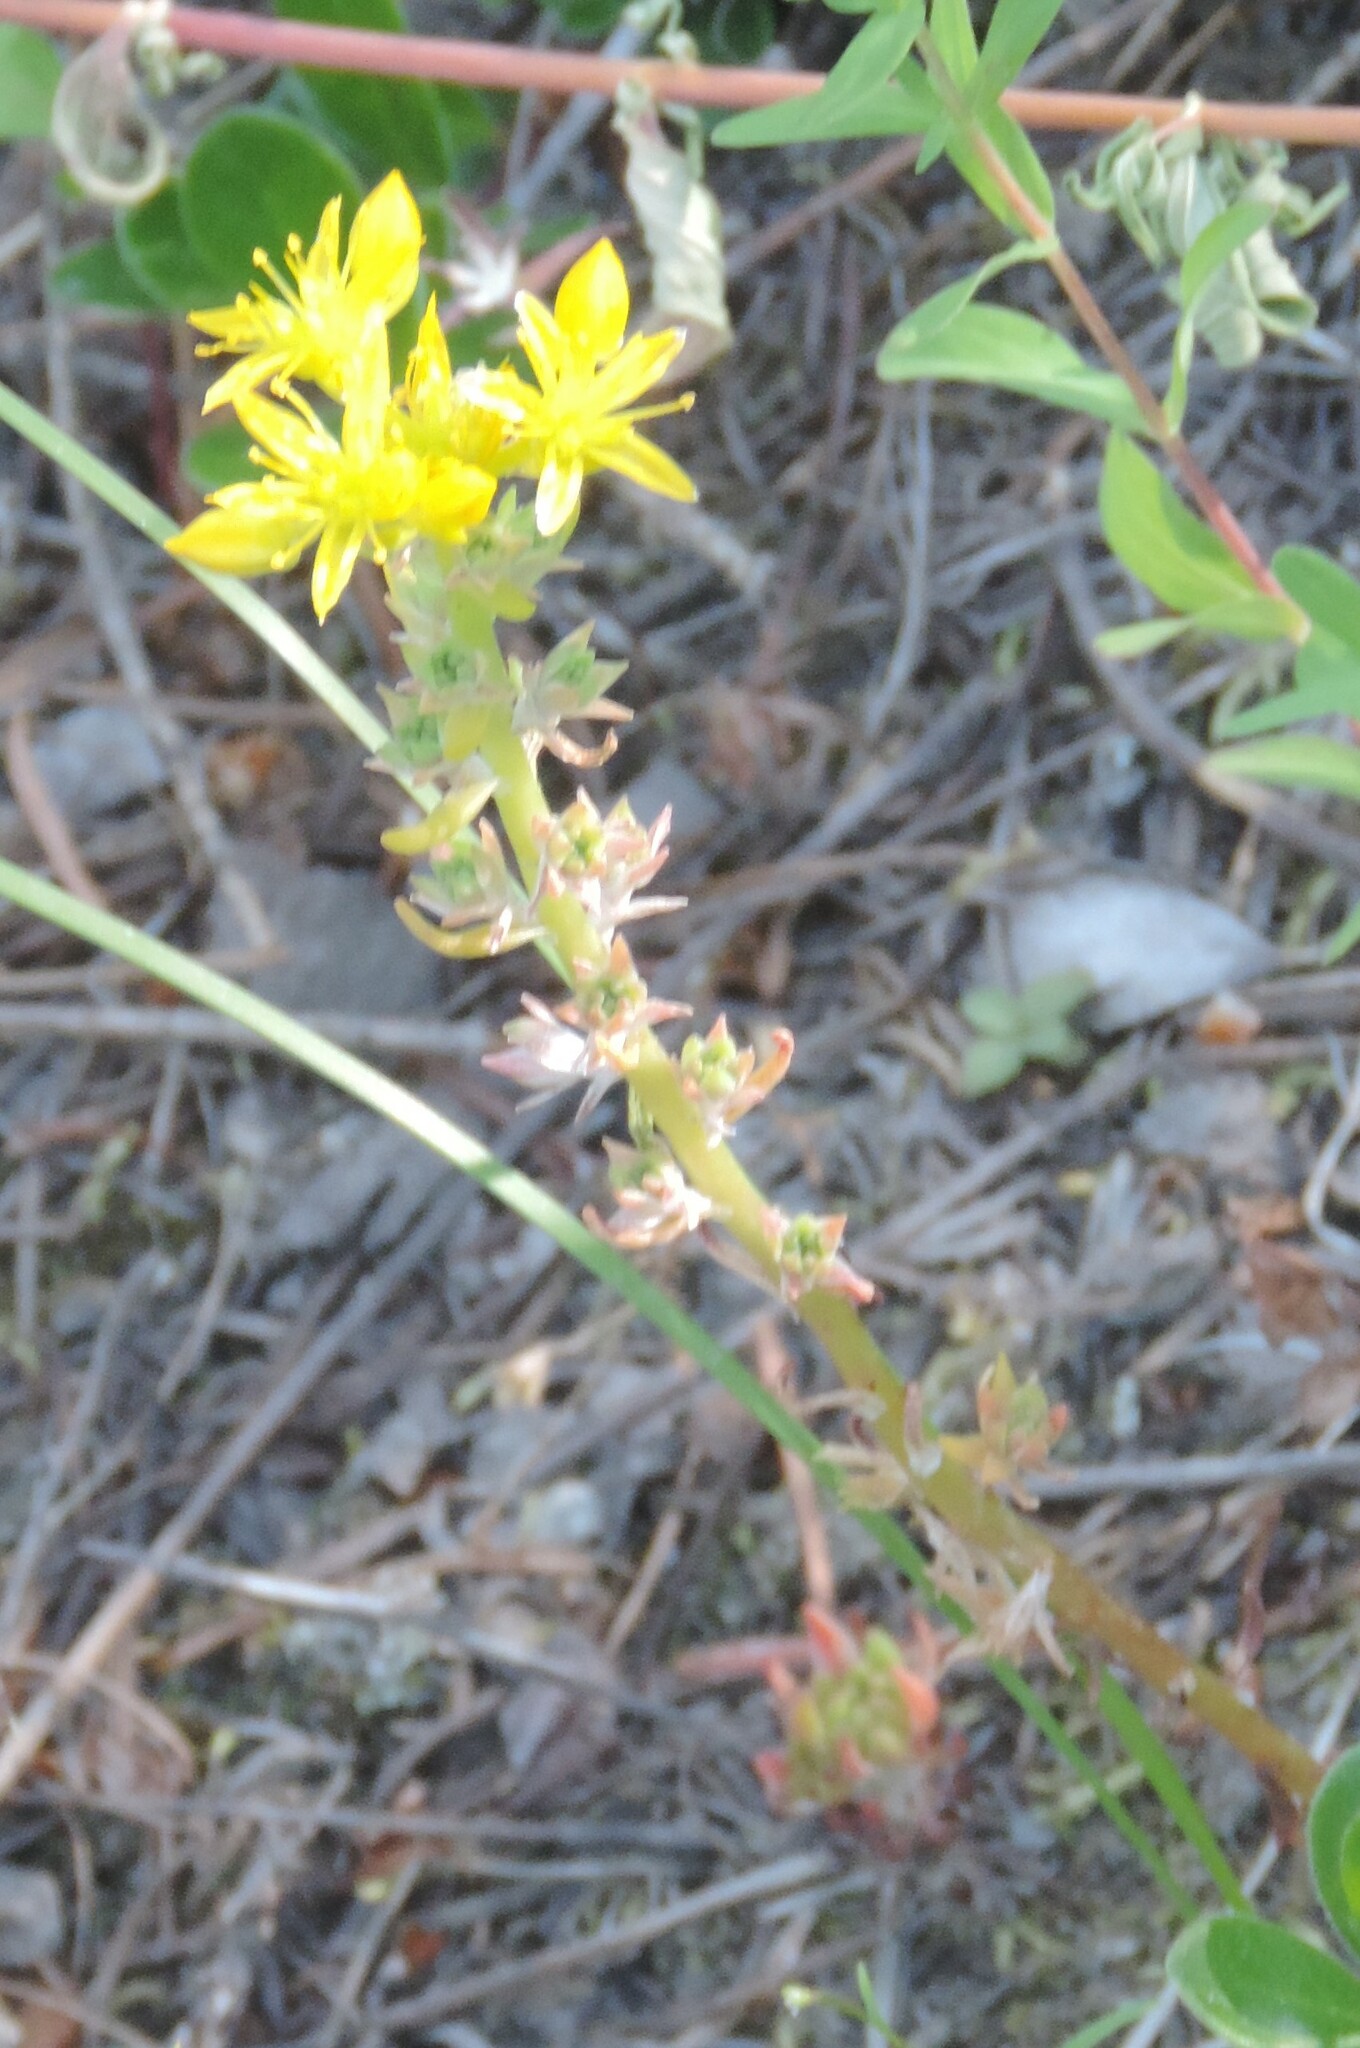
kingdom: Plantae
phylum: Tracheophyta
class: Magnoliopsida
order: Saxifragales
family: Crassulaceae
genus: Sedum
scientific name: Sedum stenopetalum
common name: Narrow-petaled stonecrop
